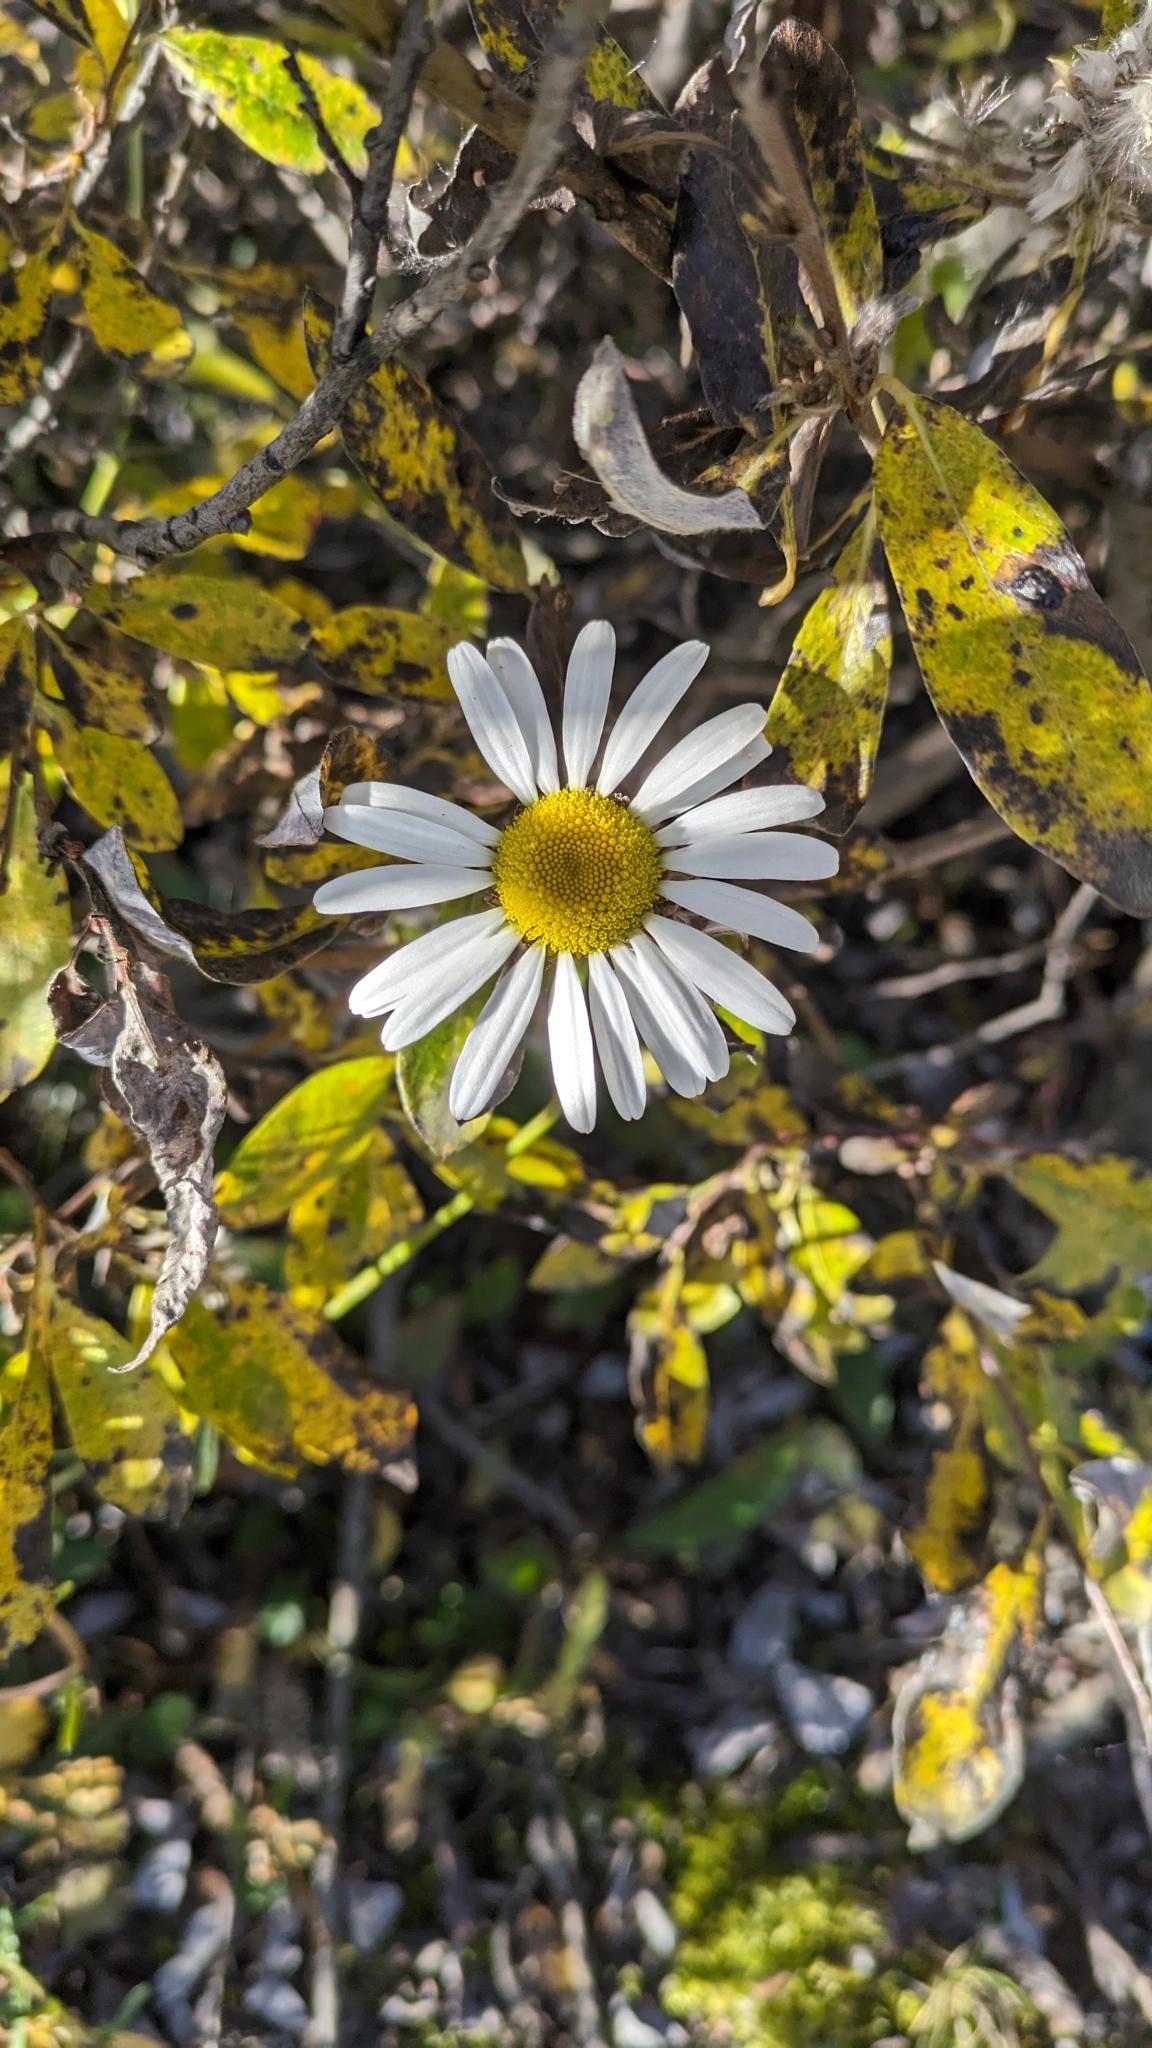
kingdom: Plantae
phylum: Tracheophyta
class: Magnoliopsida
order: Asterales
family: Asteraceae
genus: Leucanthemum
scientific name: Leucanthemum vulgare
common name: Oxeye daisy
